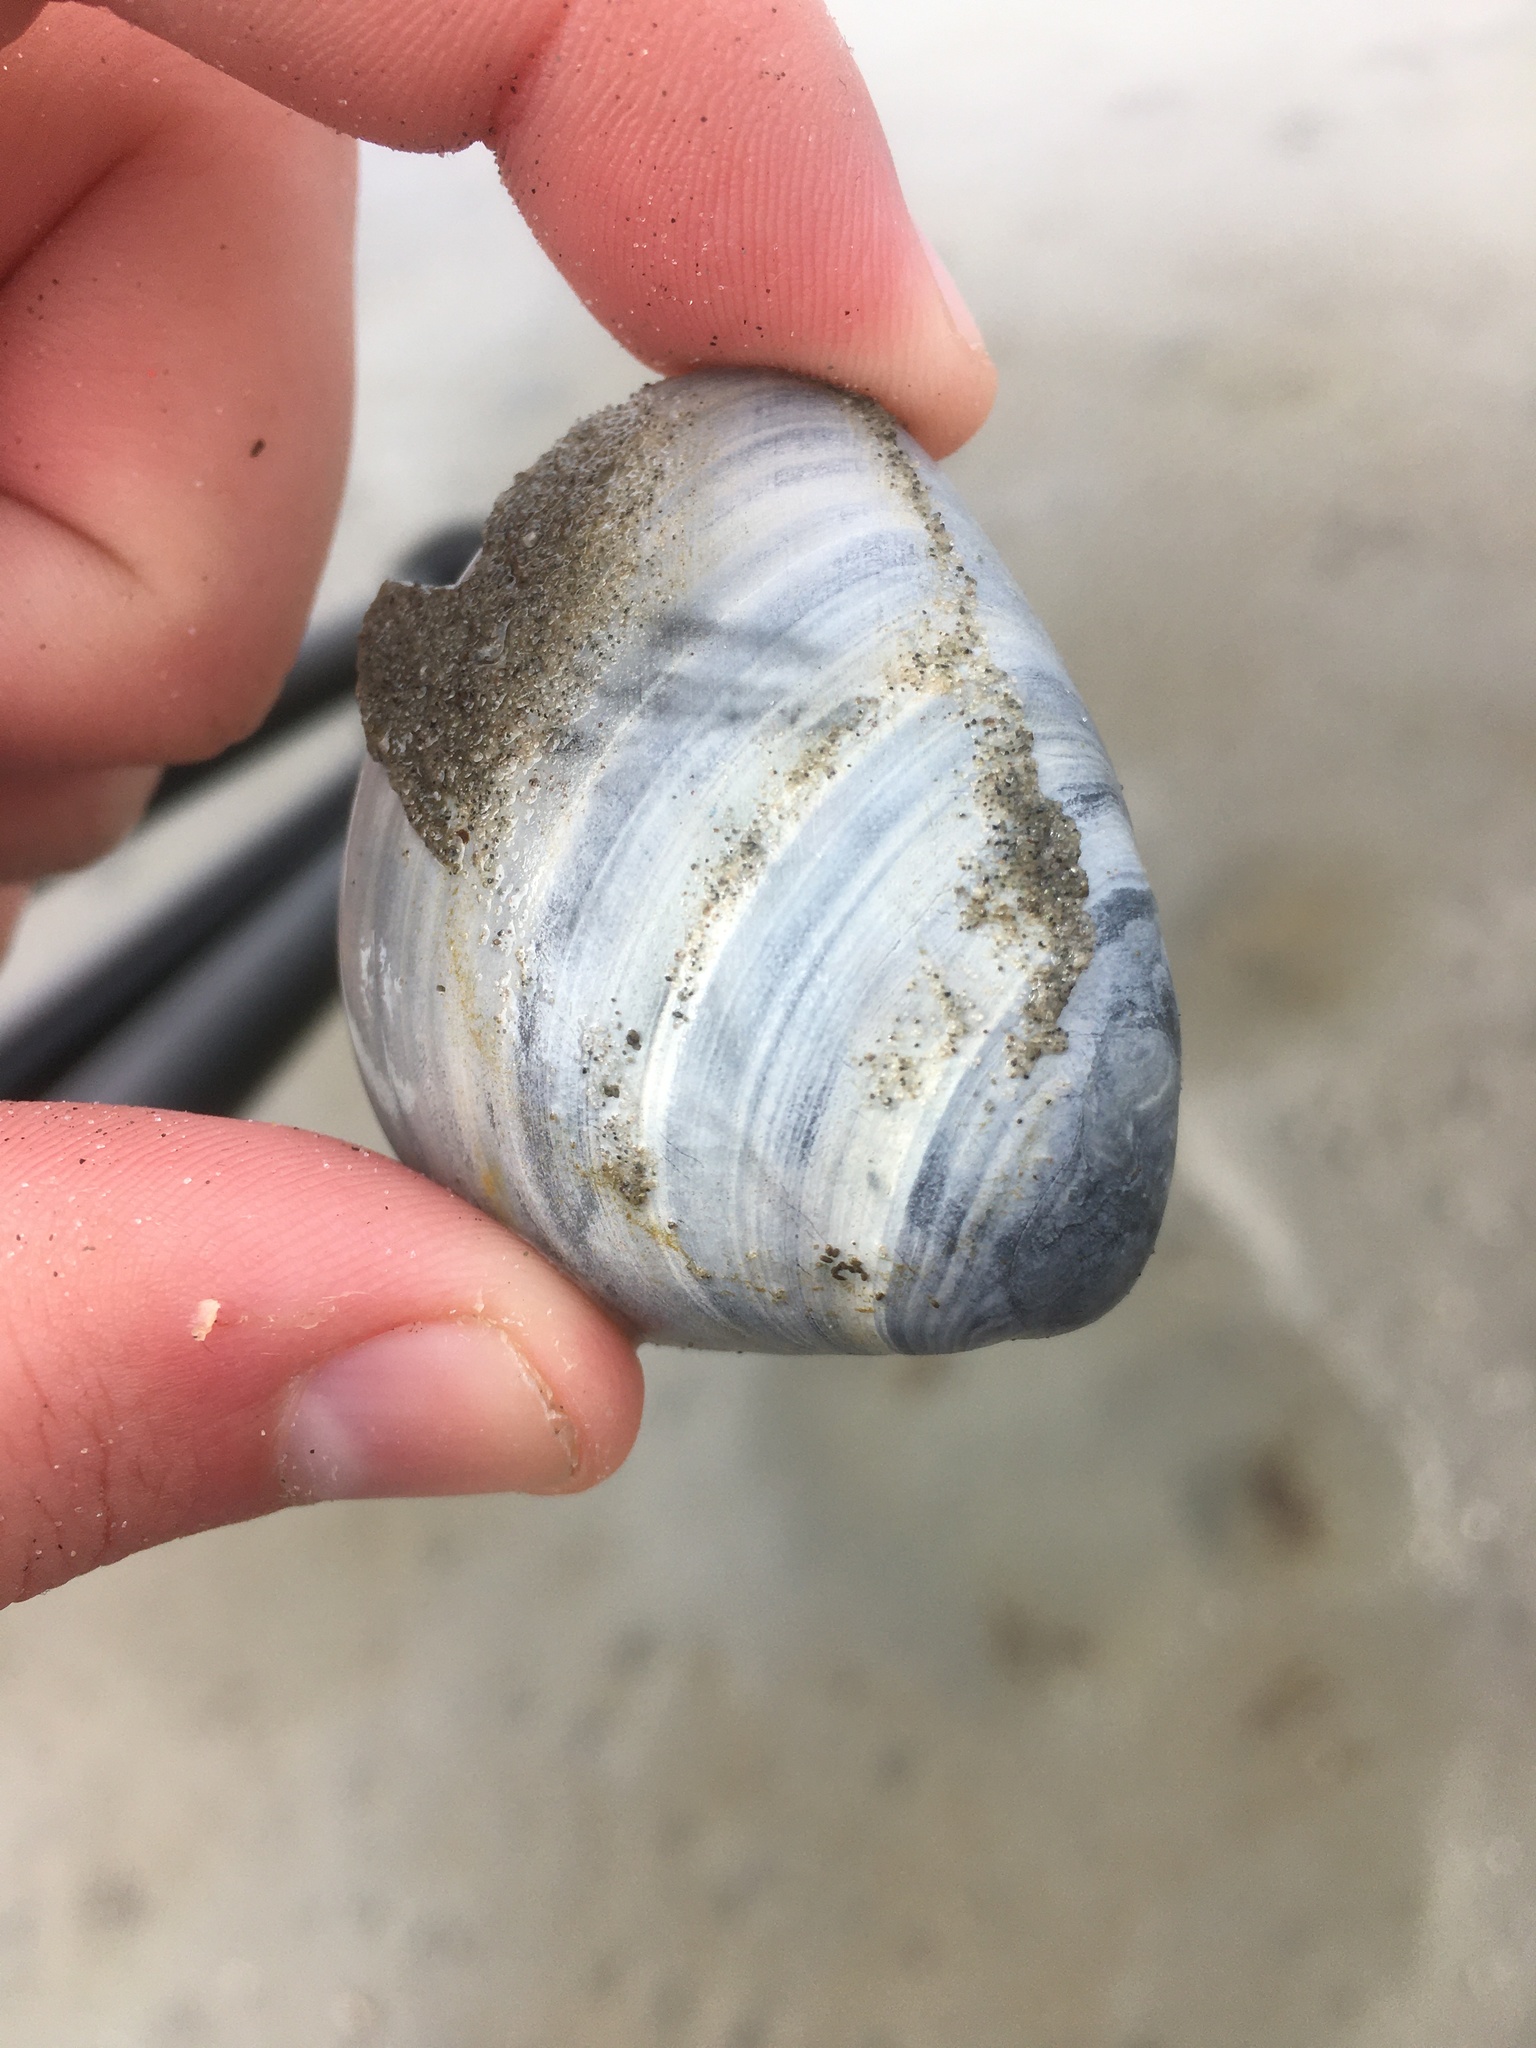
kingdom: Animalia
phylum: Mollusca
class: Bivalvia
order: Venerida
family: Mactridae
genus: Rangia
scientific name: Rangia cuneata
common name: Atlantic rangia
